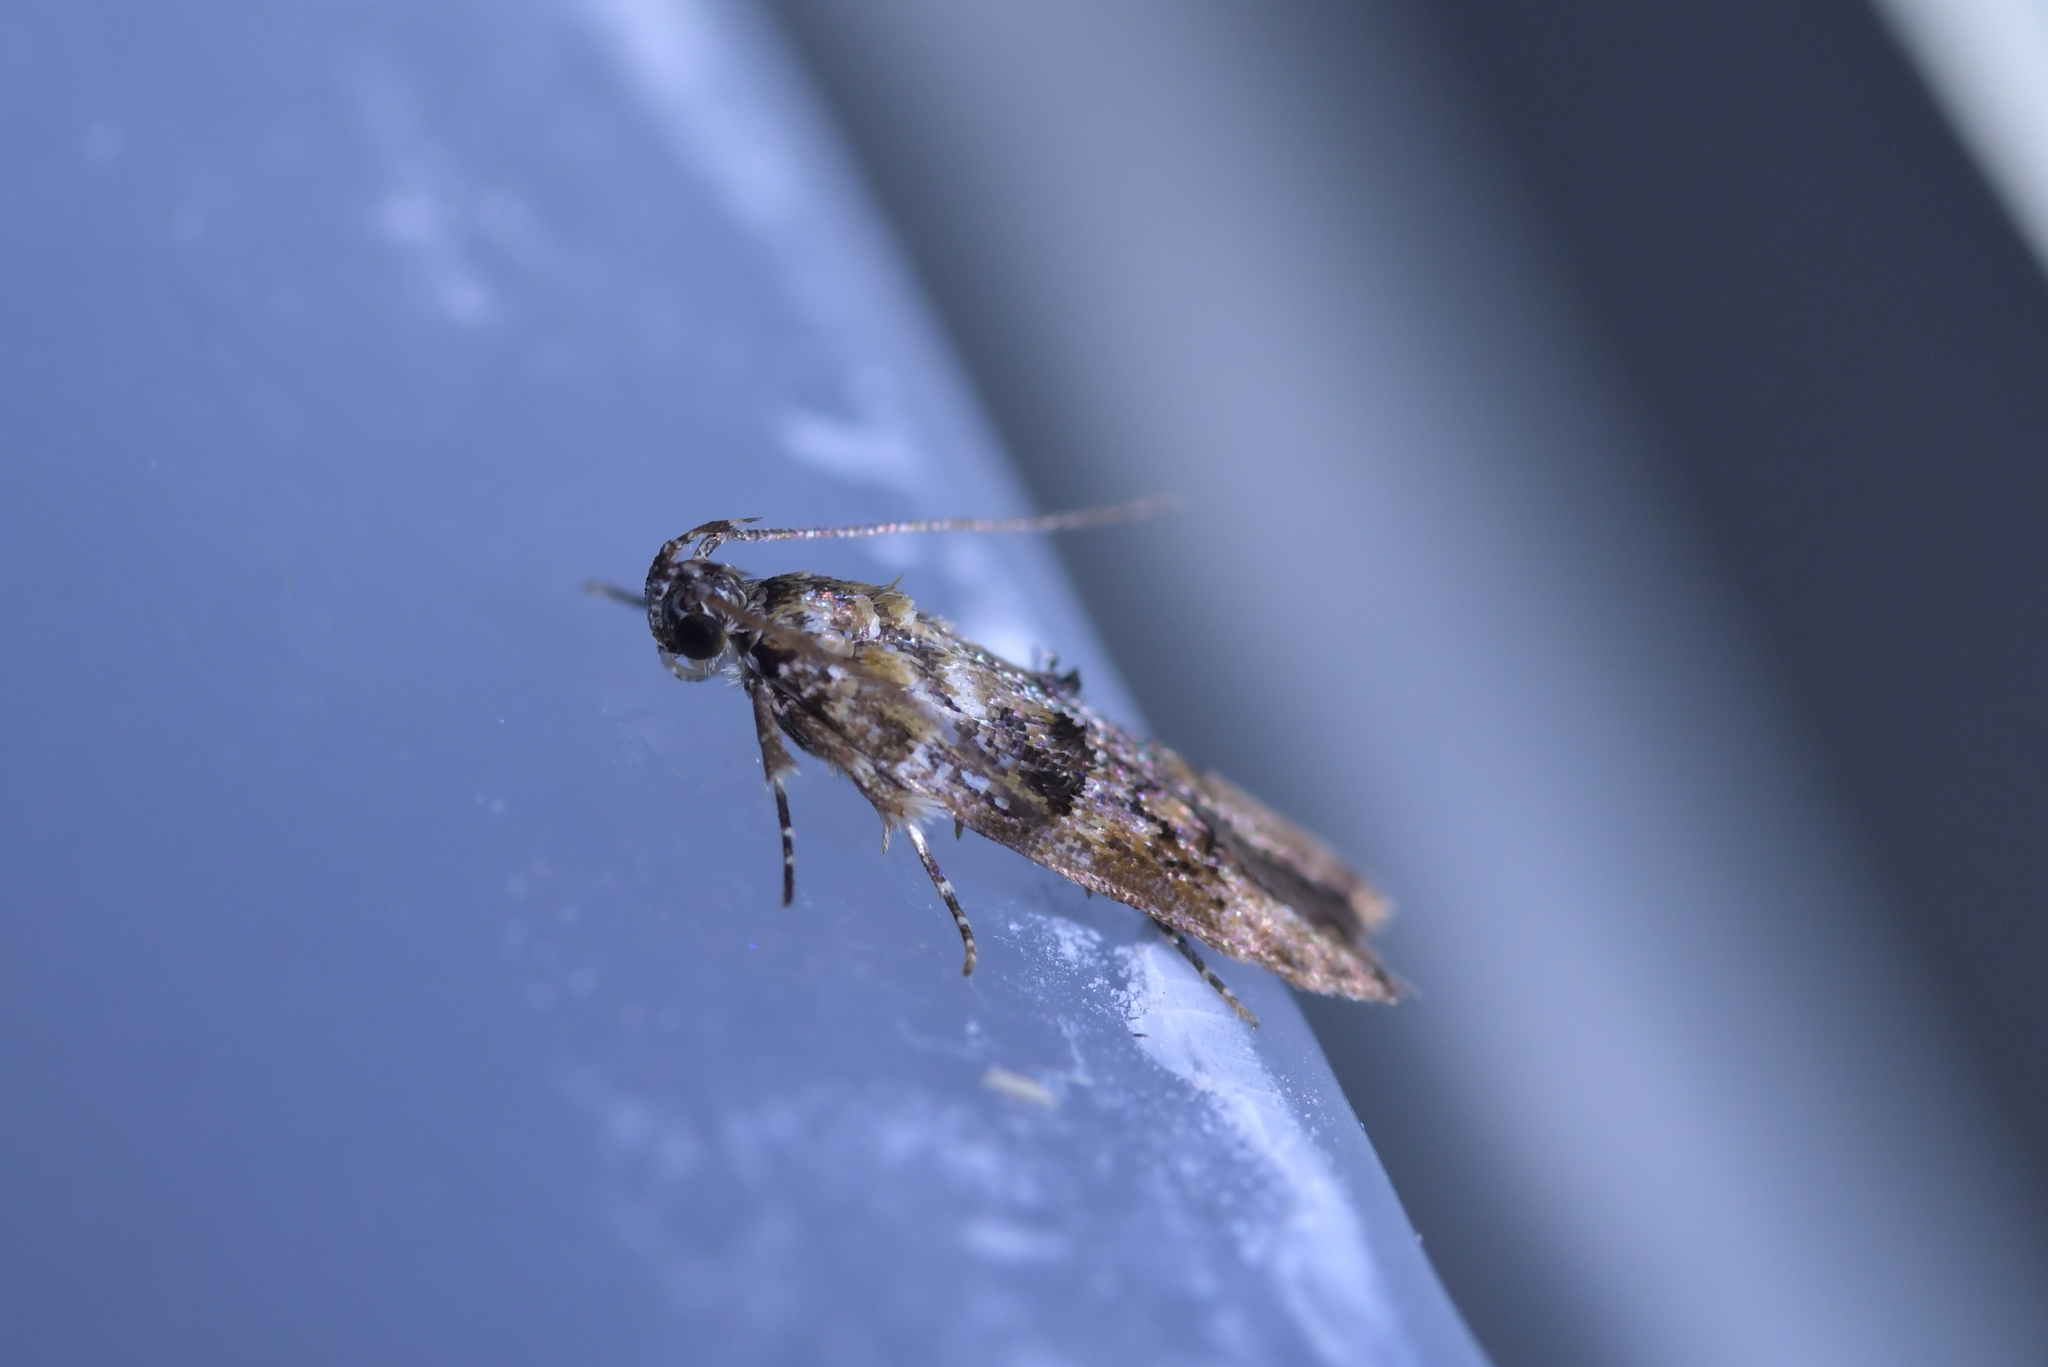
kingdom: Animalia
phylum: Arthropoda
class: Insecta
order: Lepidoptera
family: Oecophoridae
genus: Izatha
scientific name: Izatha metadelta
